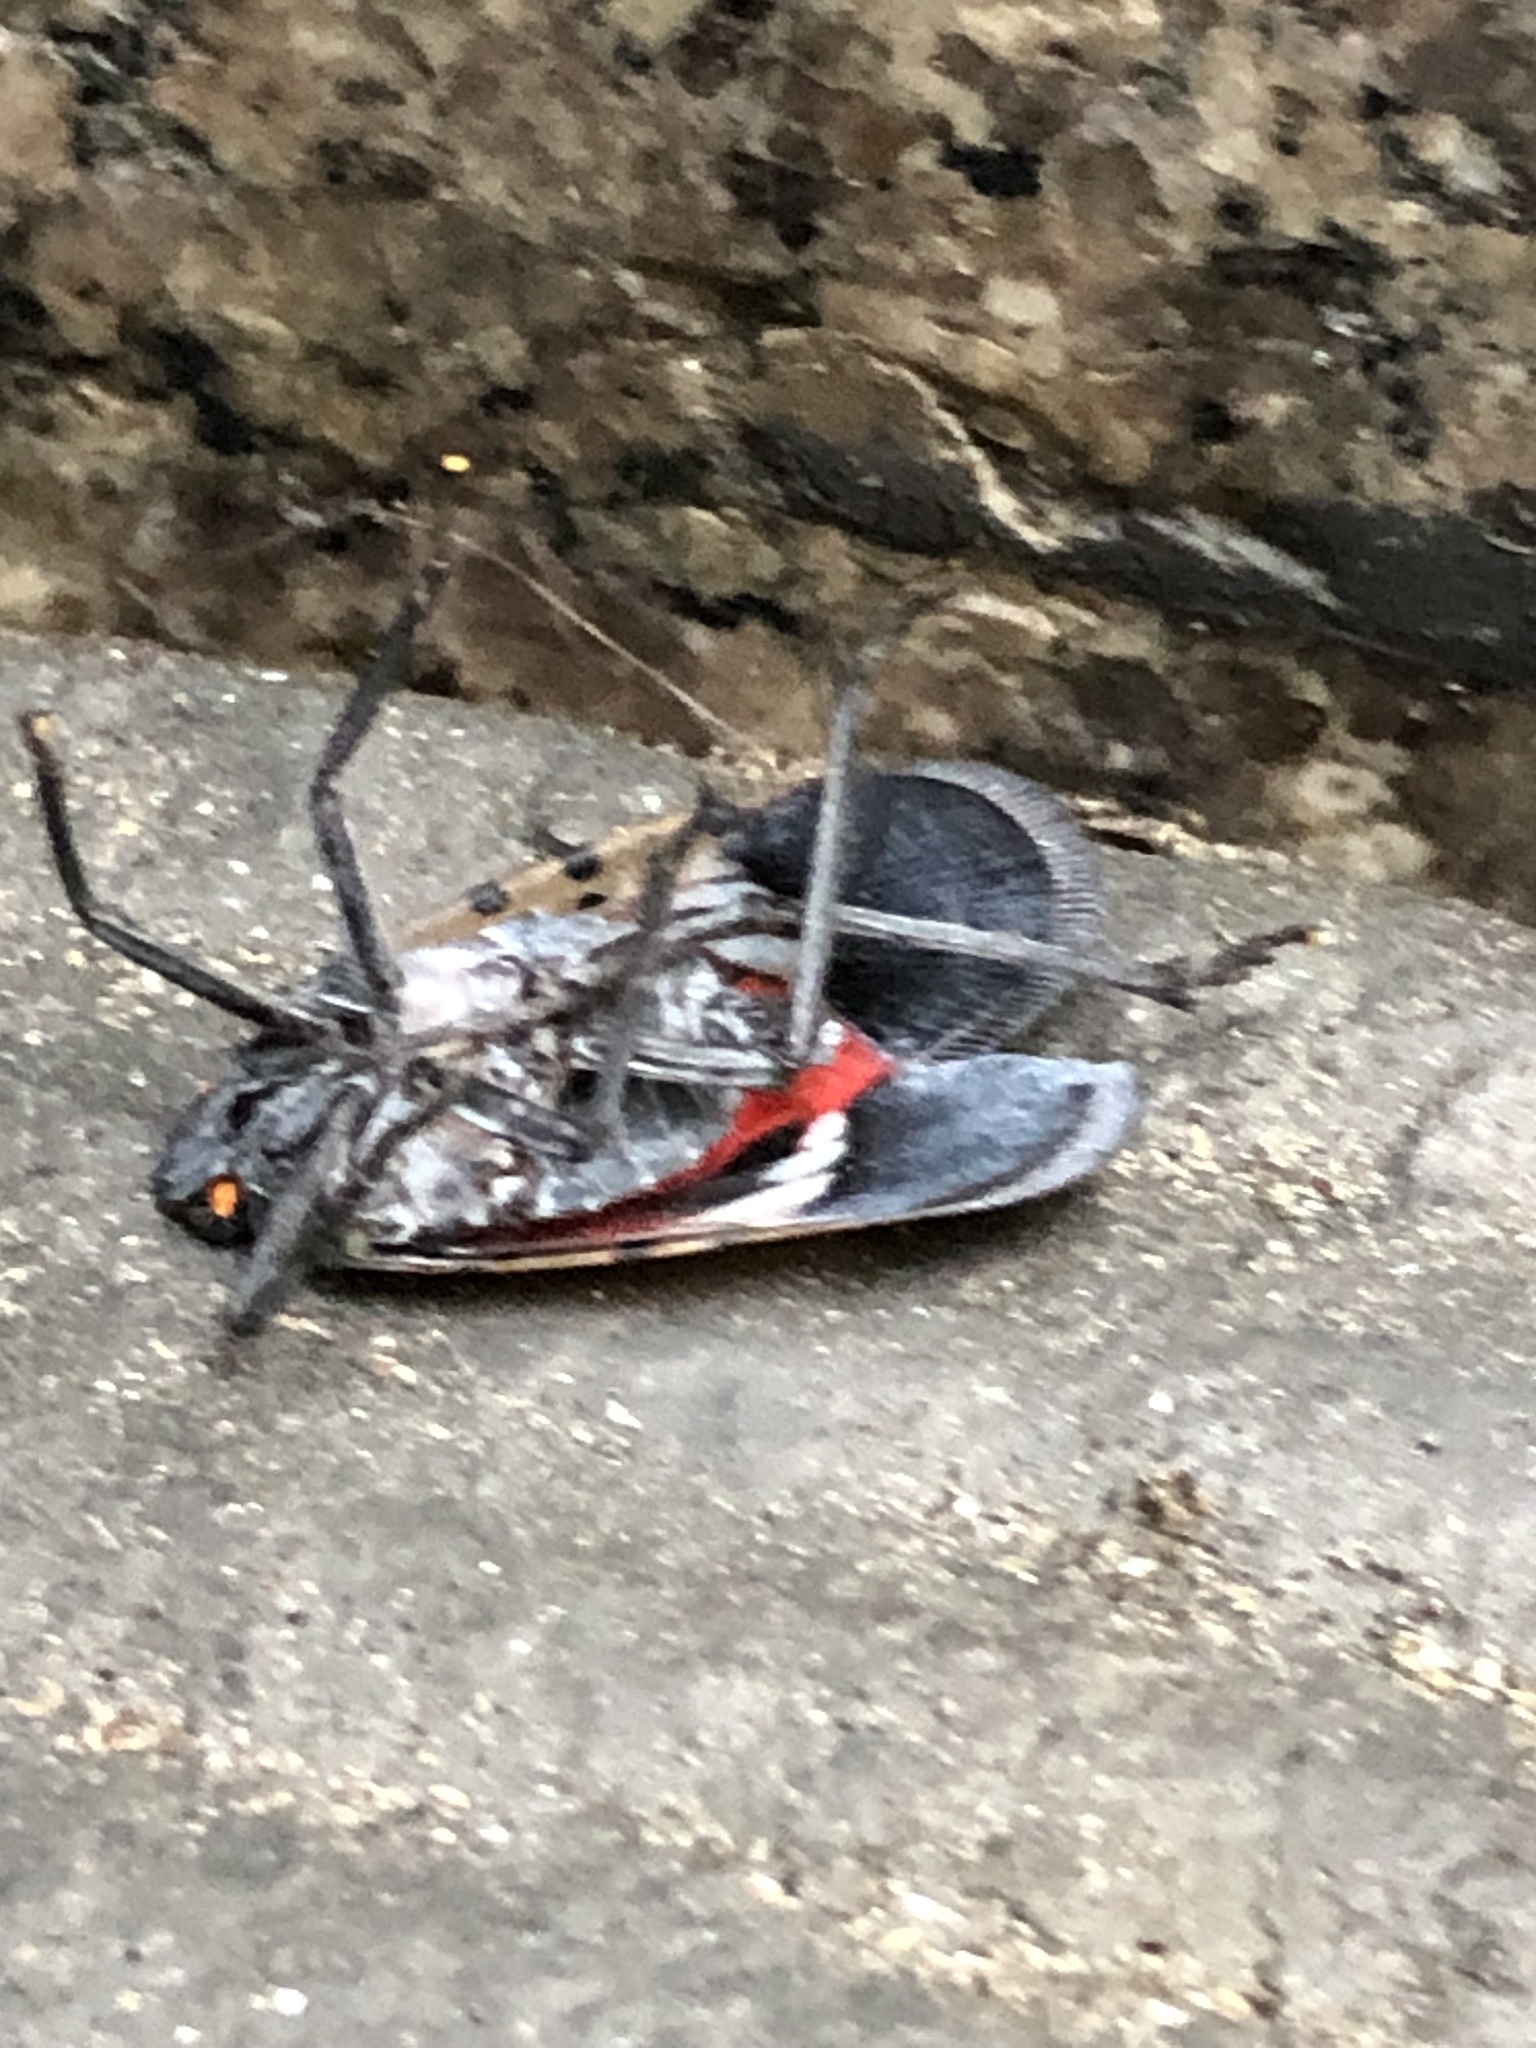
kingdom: Animalia
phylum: Arthropoda
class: Insecta
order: Hemiptera
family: Fulgoridae
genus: Lycorma
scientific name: Lycorma delicatula
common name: Spotted lanternfly
